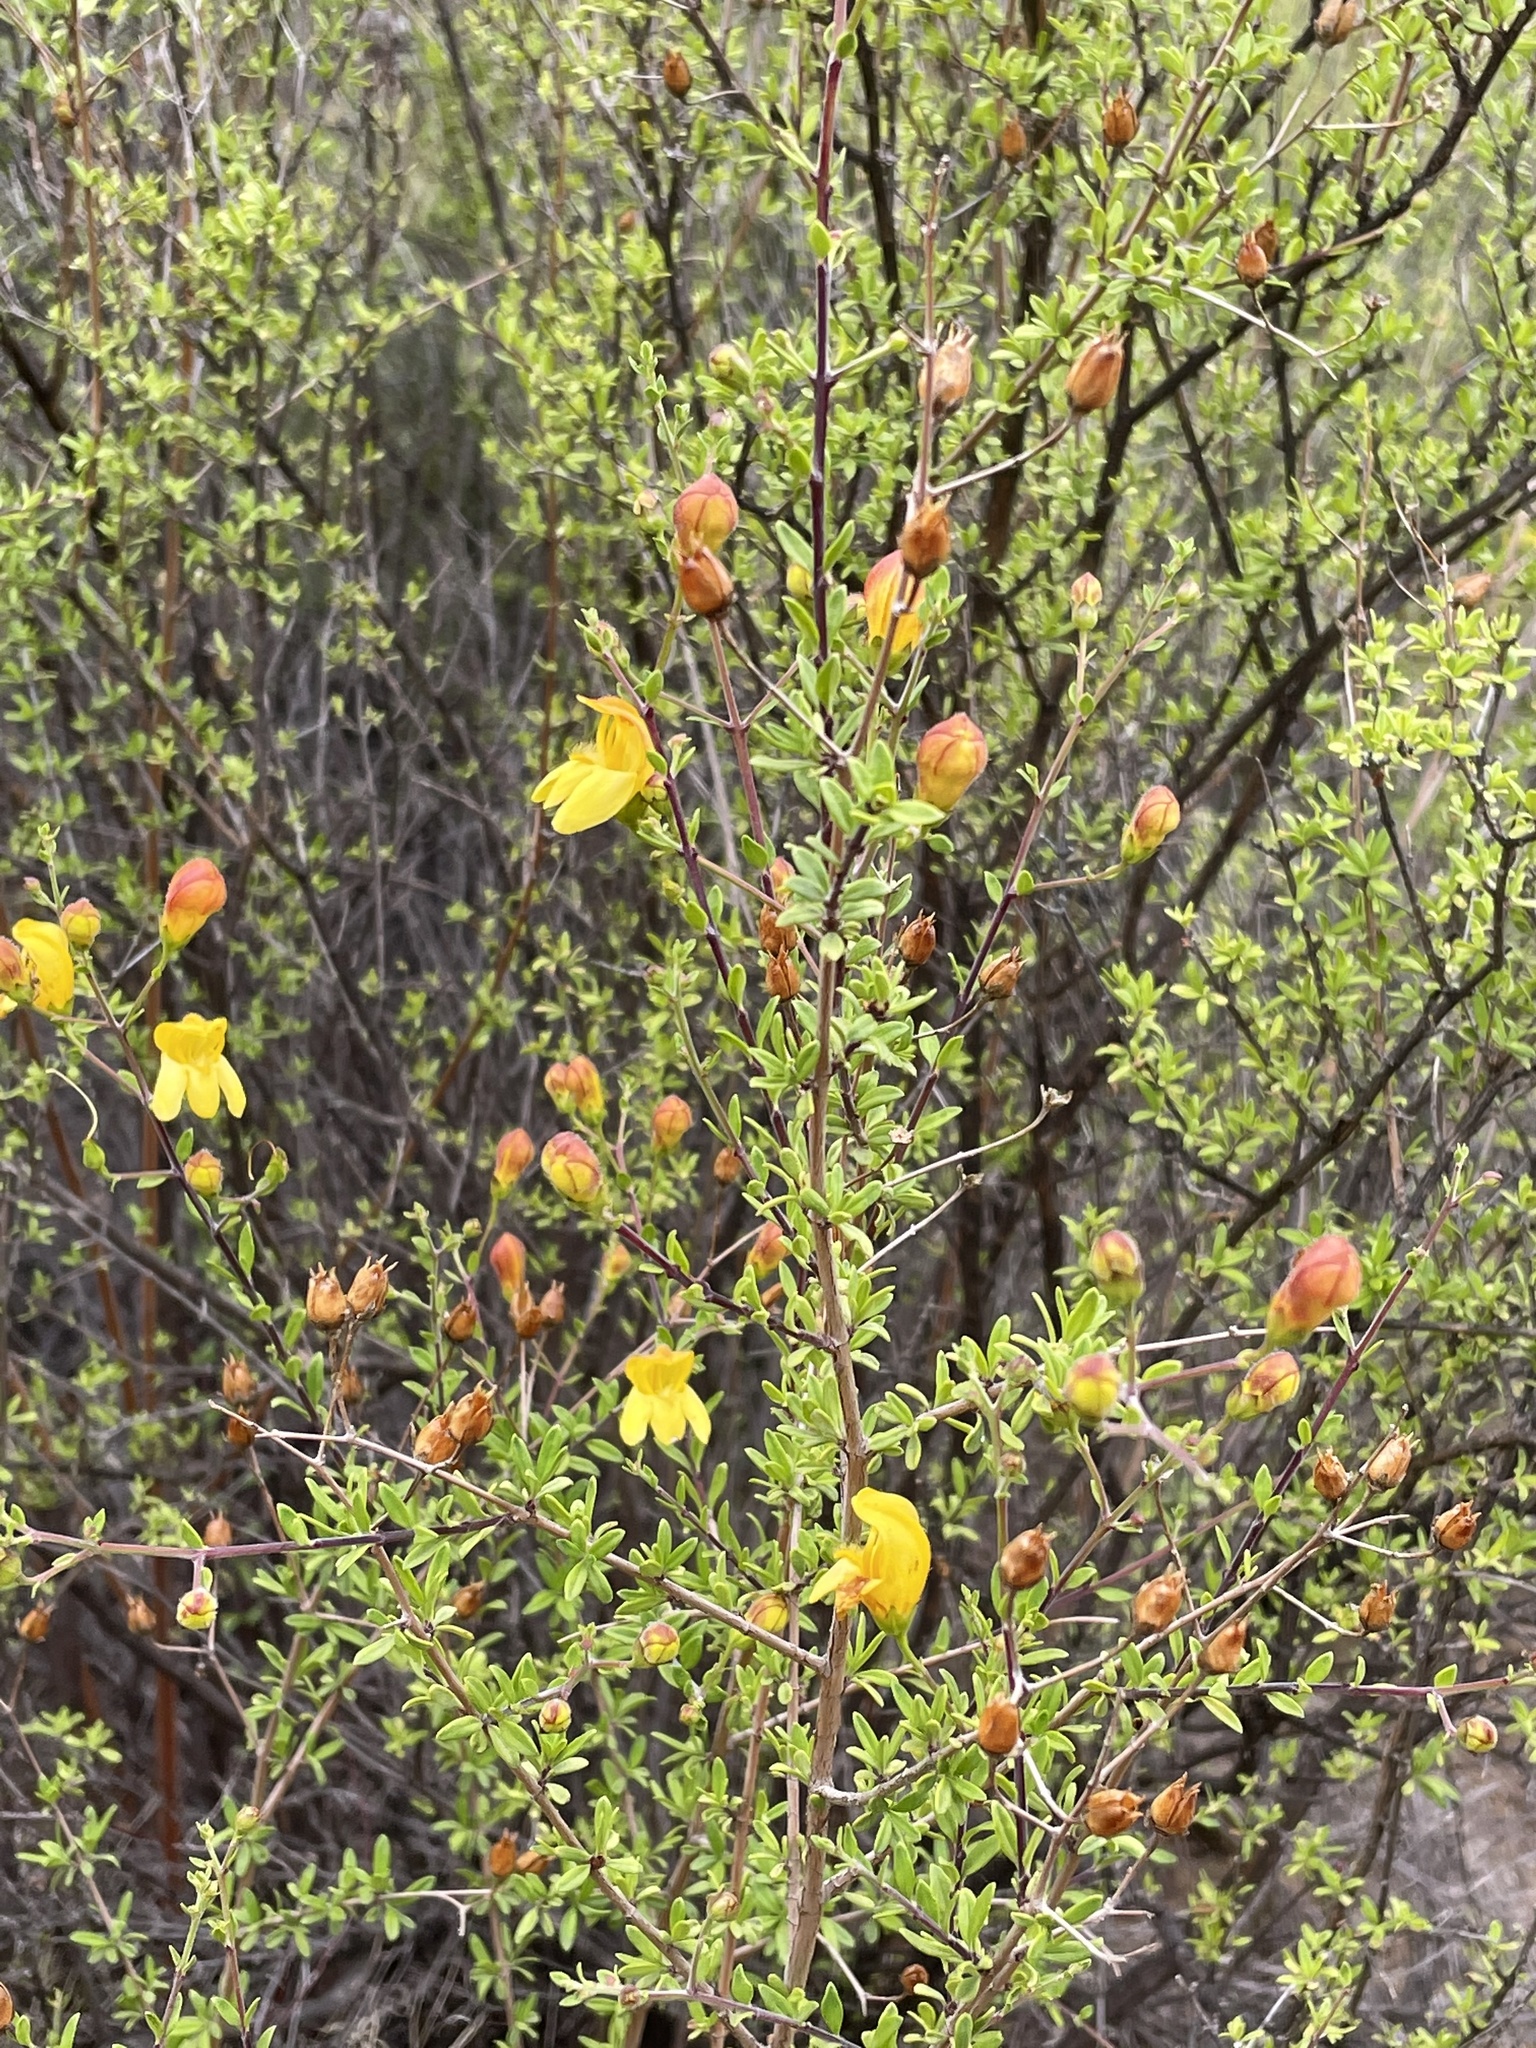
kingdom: Plantae
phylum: Tracheophyta
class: Magnoliopsida
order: Lamiales
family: Plantaginaceae
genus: Keckiella
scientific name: Keckiella antirrhinoides
